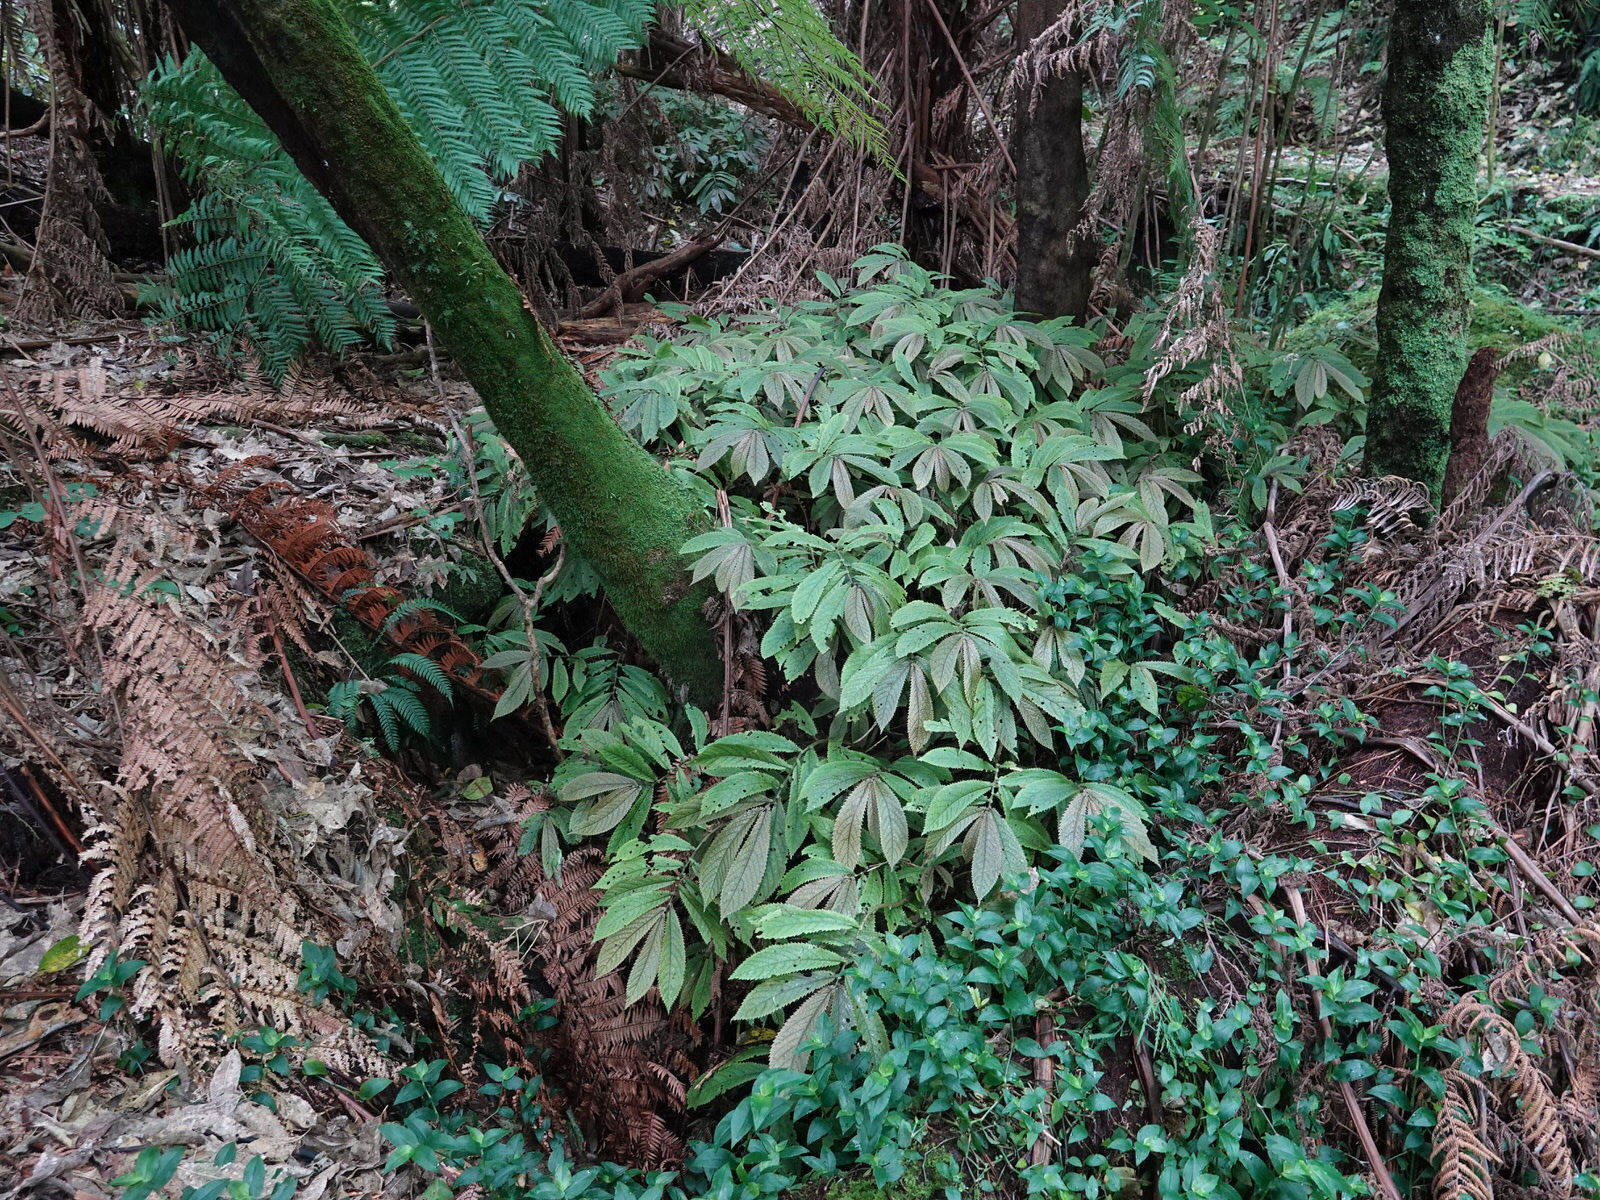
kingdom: Plantae
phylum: Tracheophyta
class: Magnoliopsida
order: Rosales
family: Urticaceae
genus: Elatostema
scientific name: Elatostema rugosum
